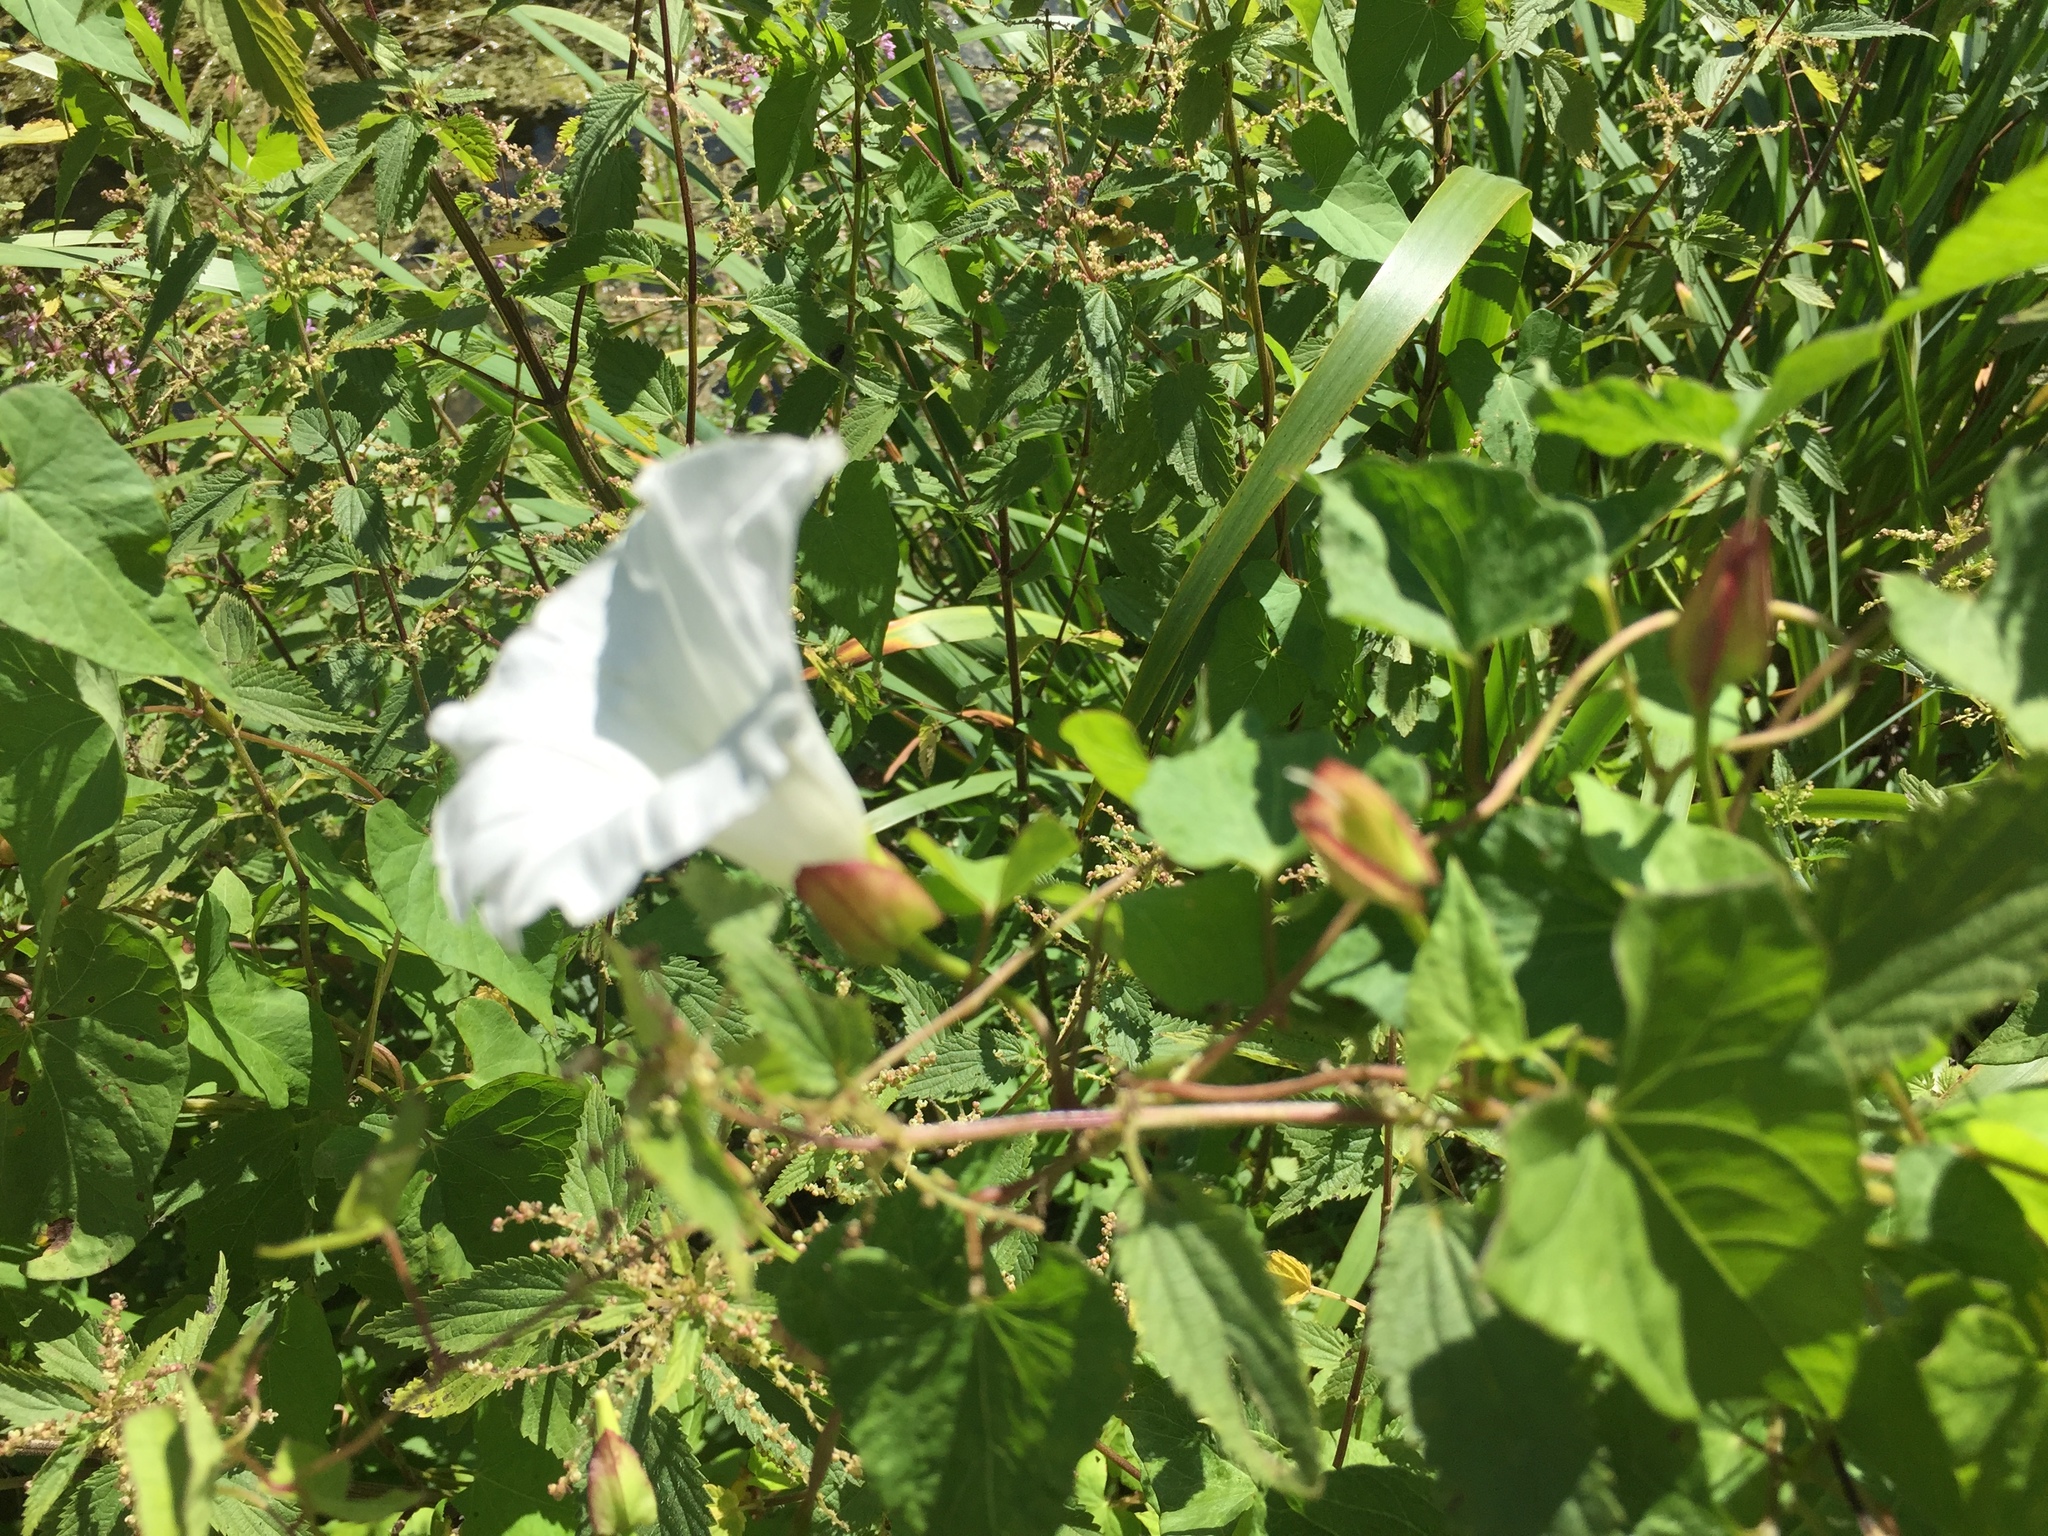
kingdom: Plantae
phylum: Tracheophyta
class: Magnoliopsida
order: Solanales
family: Convolvulaceae
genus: Calystegia
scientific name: Calystegia sepium
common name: Hedge bindweed
